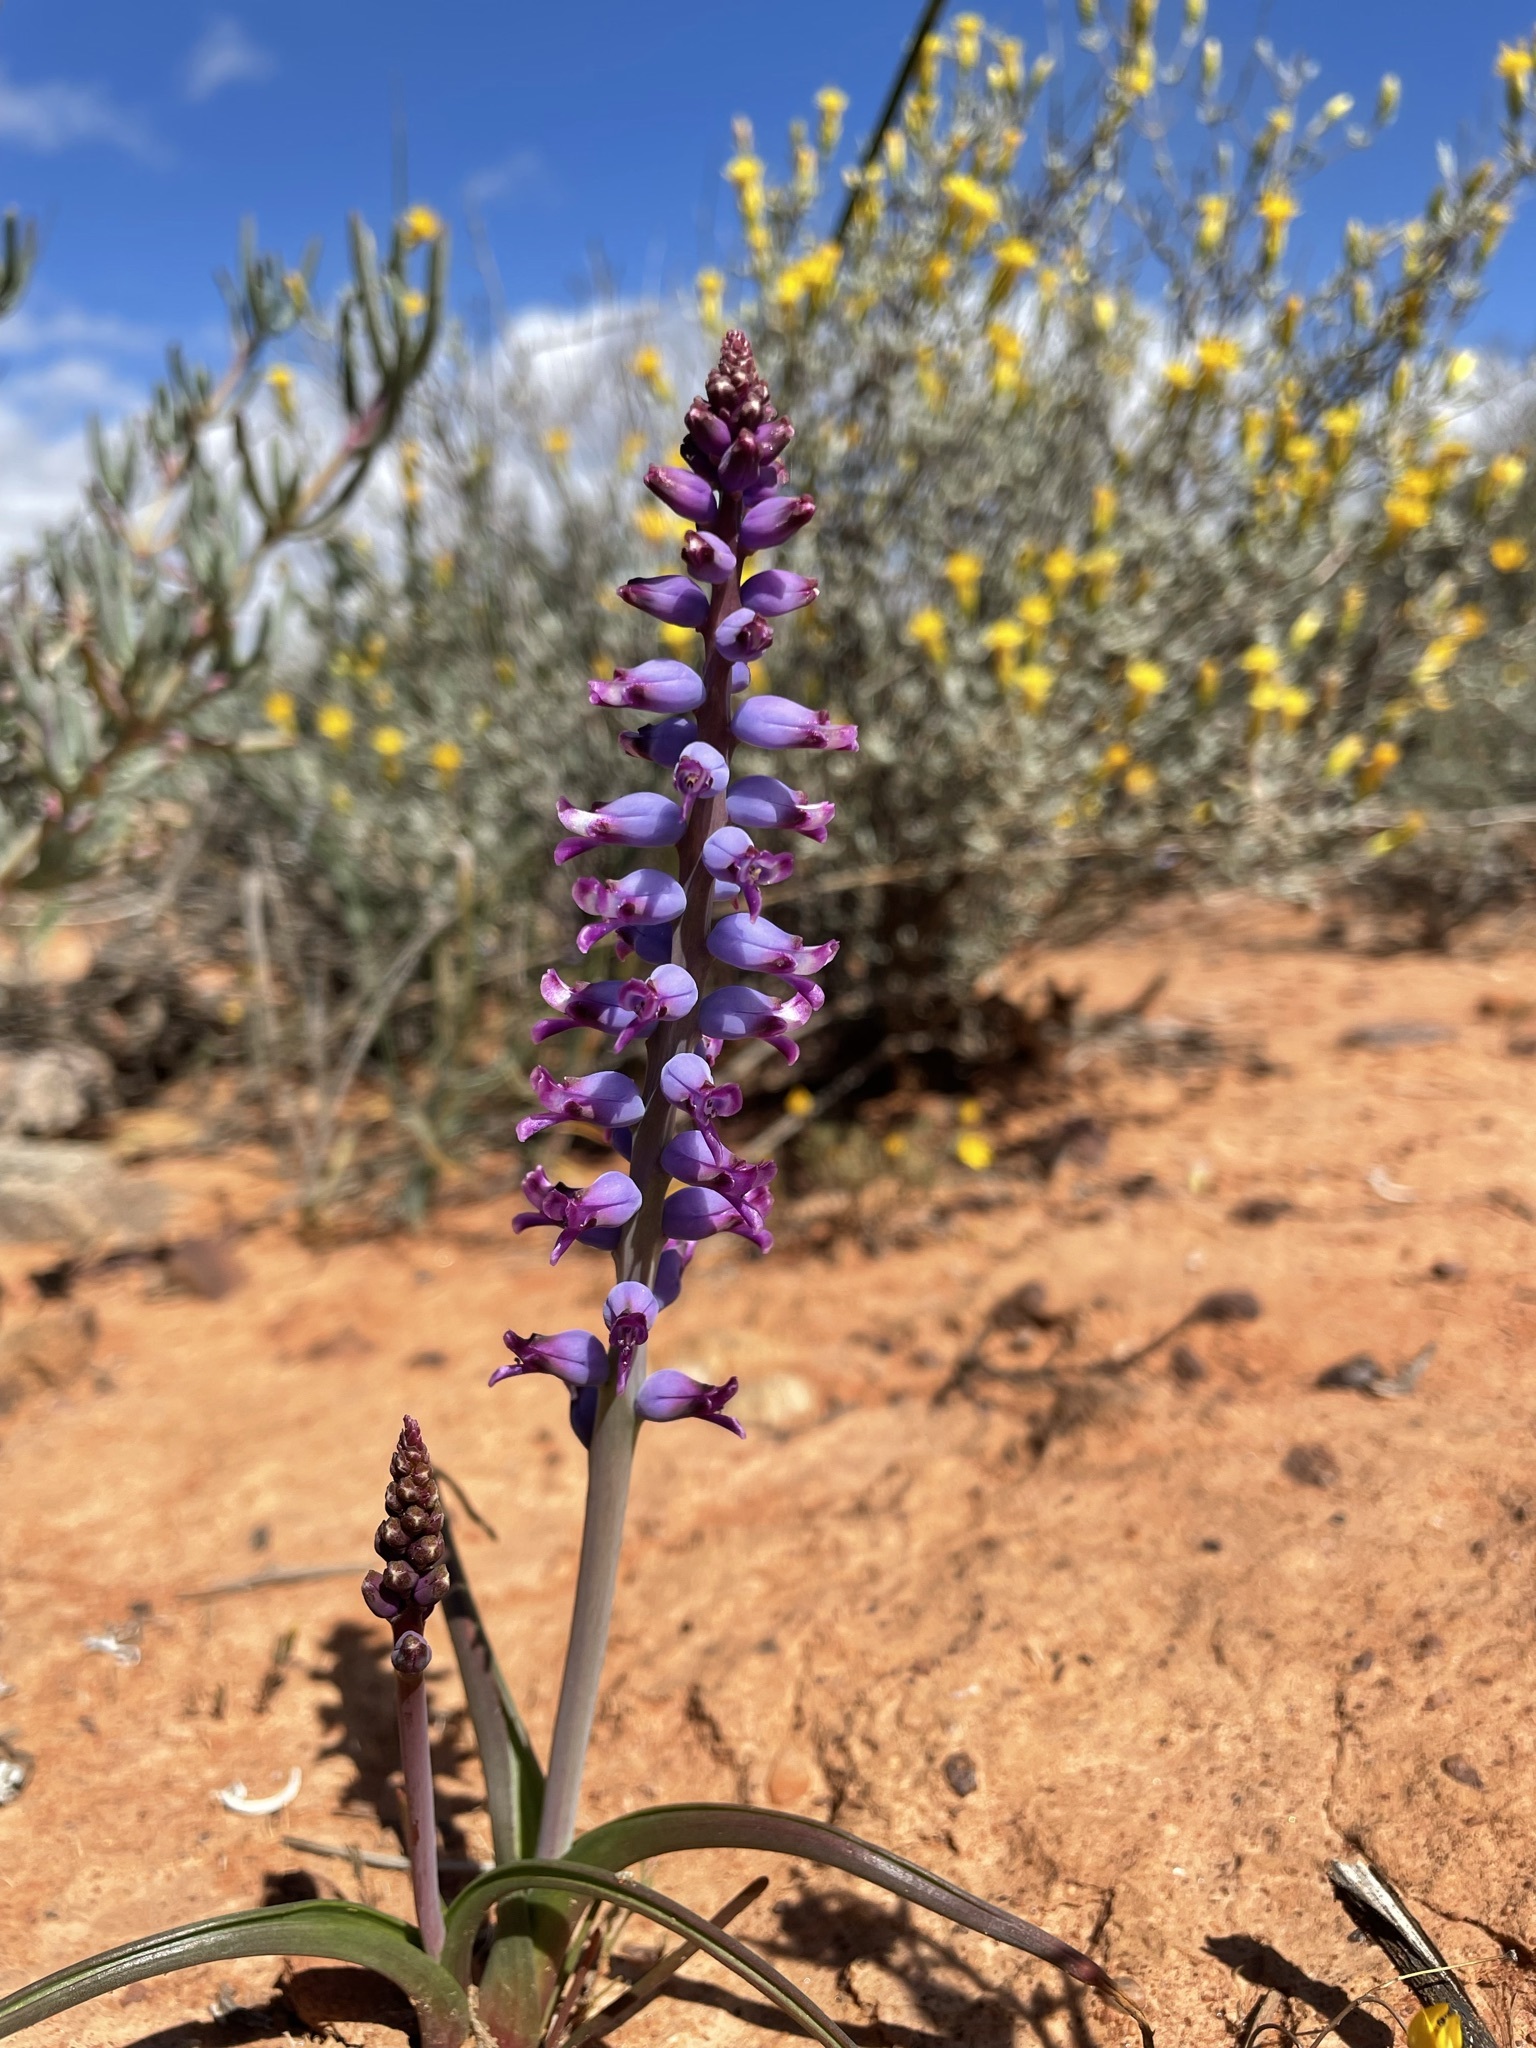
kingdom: Plantae
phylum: Tracheophyta
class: Liliopsida
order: Asparagales
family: Asparagaceae
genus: Lachenalia
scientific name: Lachenalia namaquensis
